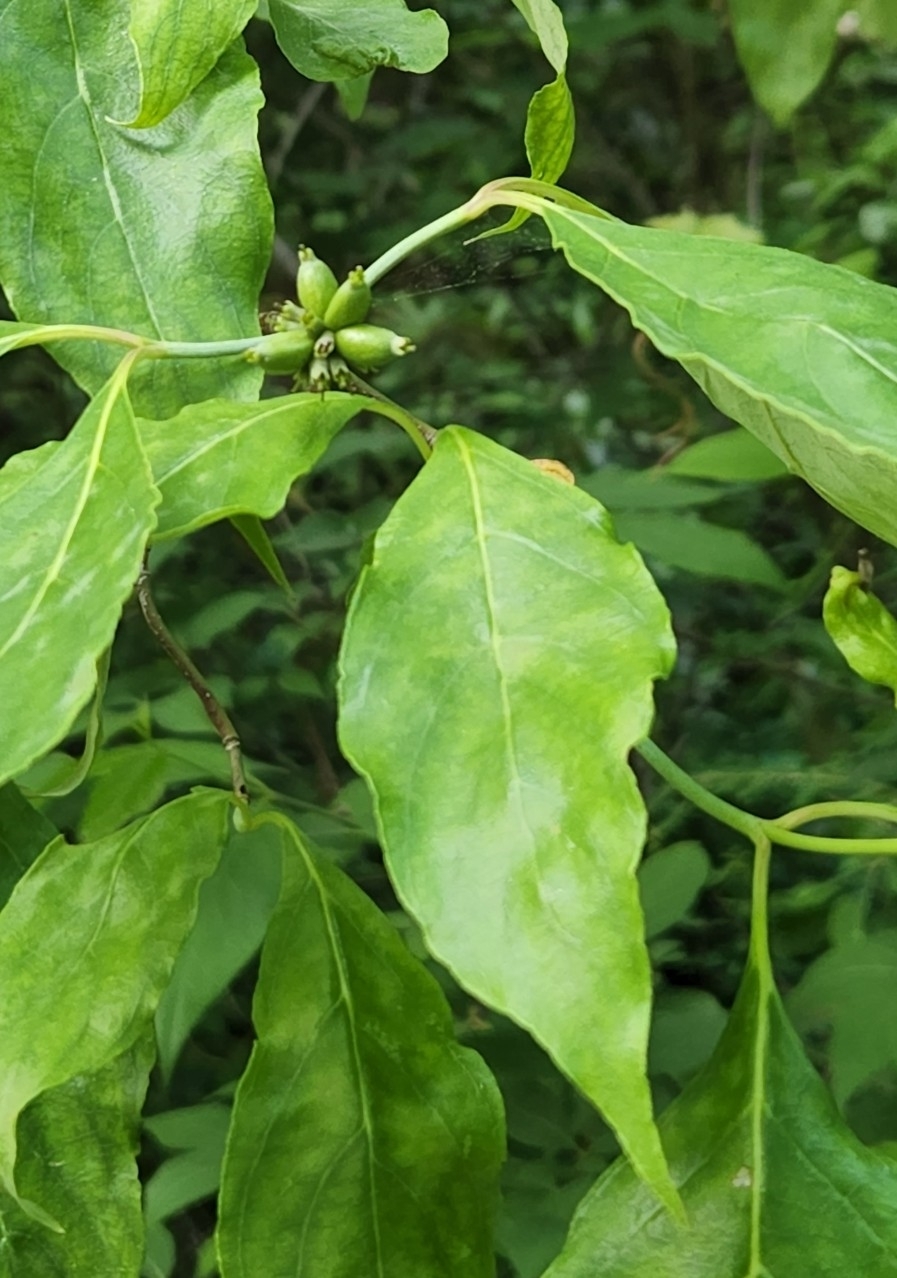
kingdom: Plantae
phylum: Tracheophyta
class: Magnoliopsida
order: Cornales
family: Cornaceae
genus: Cornus
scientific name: Cornus florida
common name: Flowering dogwood
